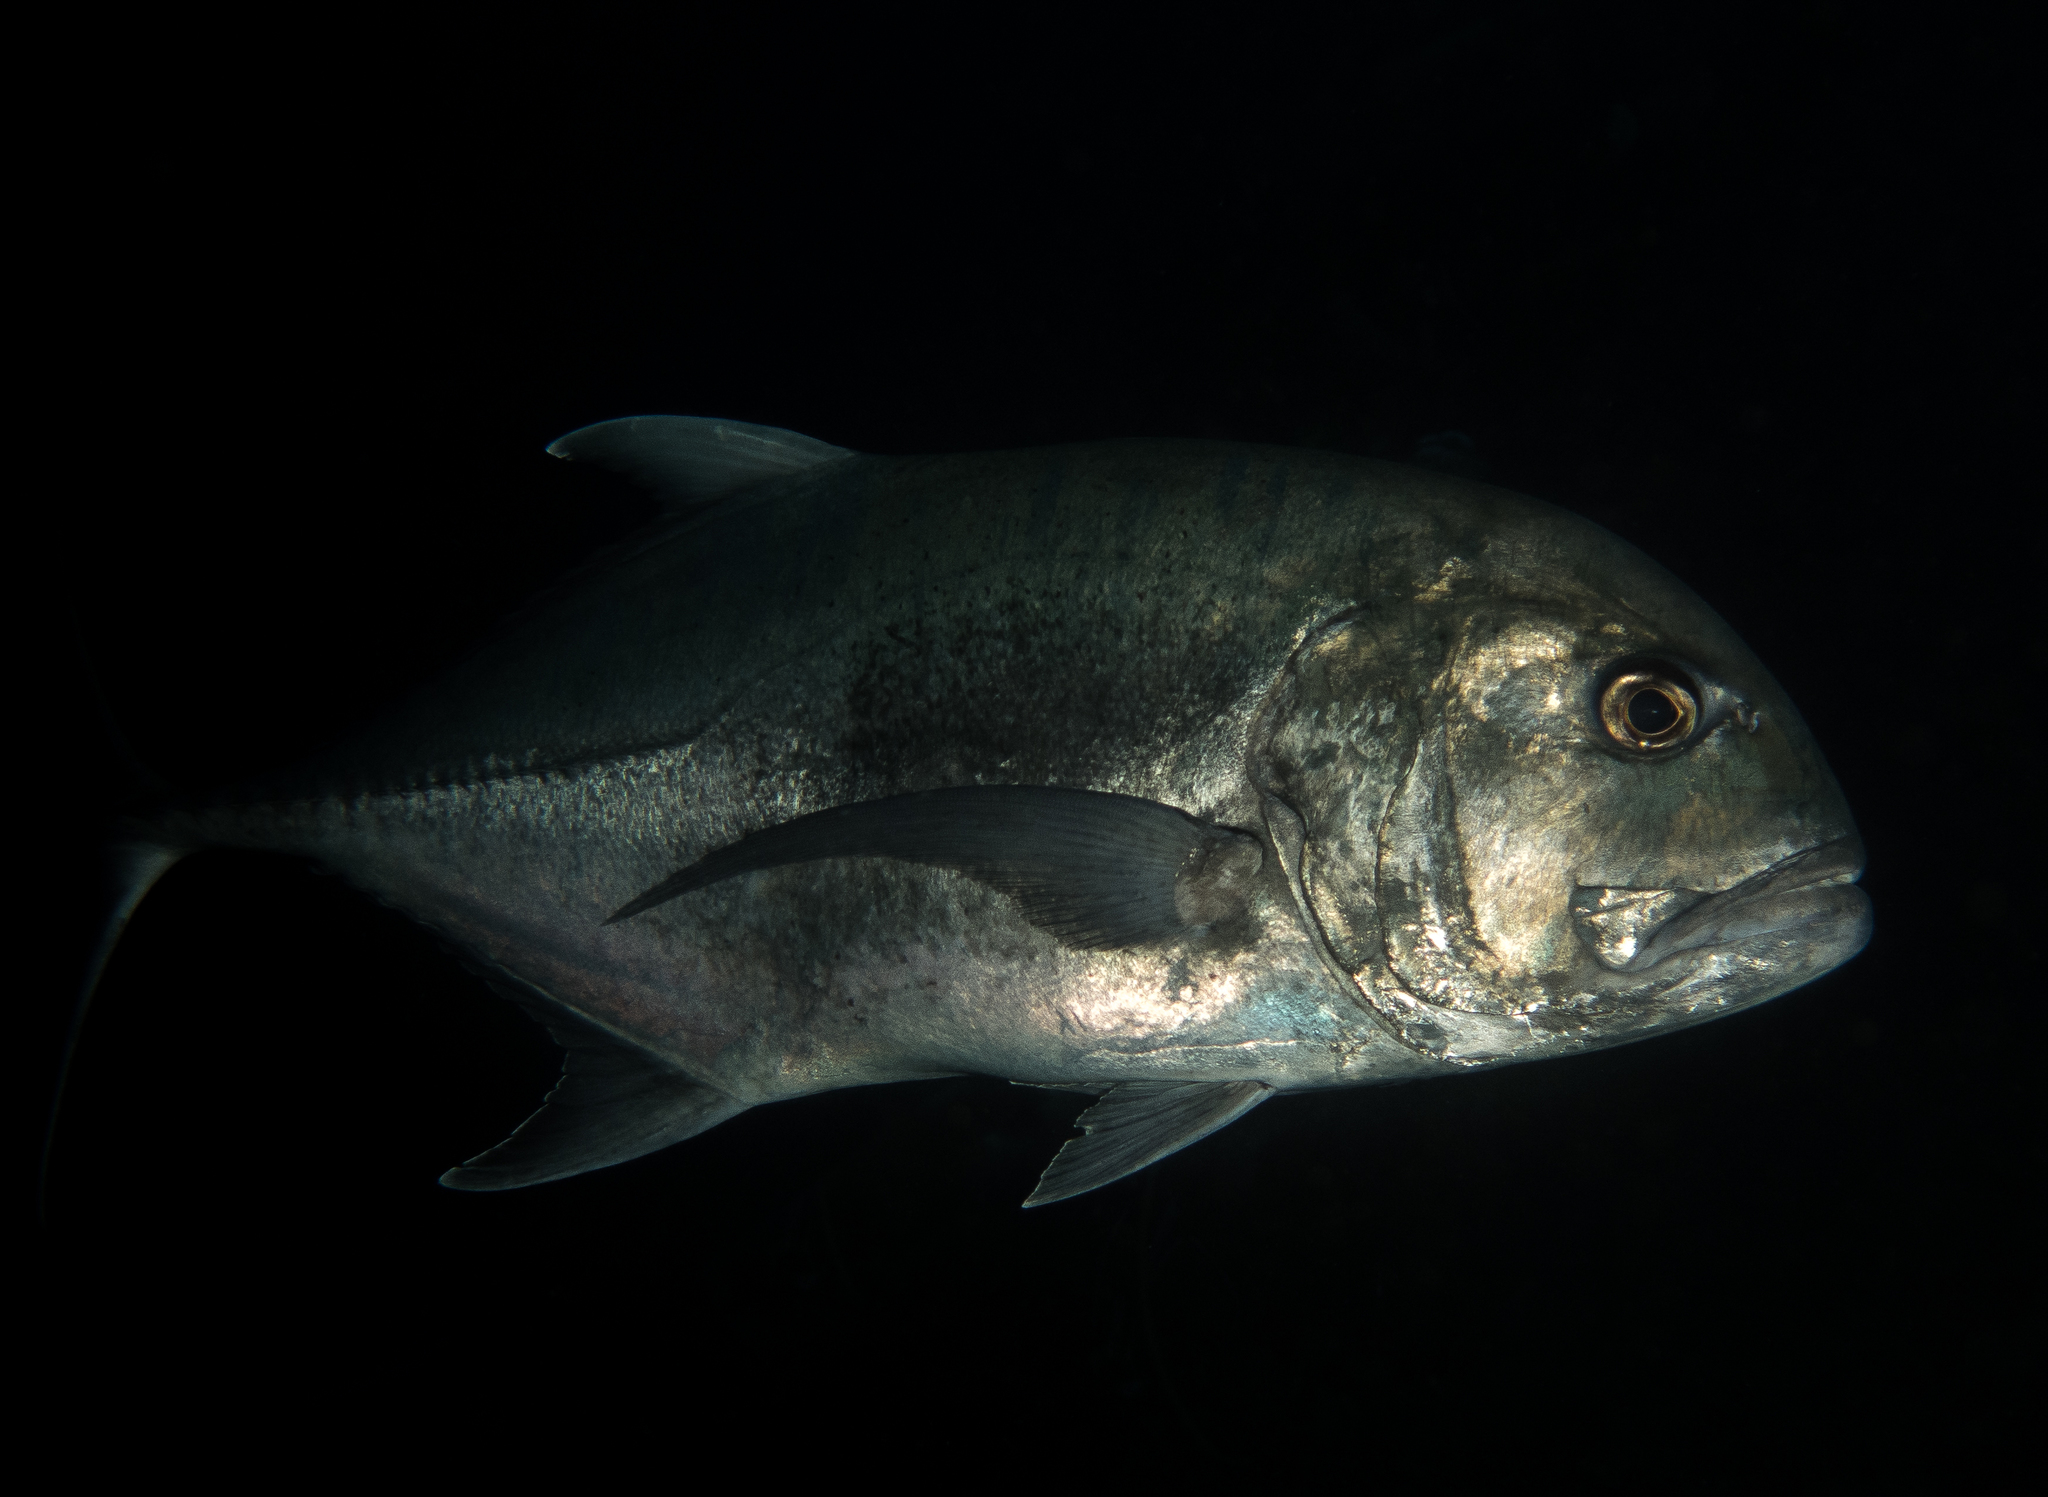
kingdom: Animalia
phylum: Chordata
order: Perciformes
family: Carangidae
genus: Caranx
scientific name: Caranx ignobilis
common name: Giant trevally
